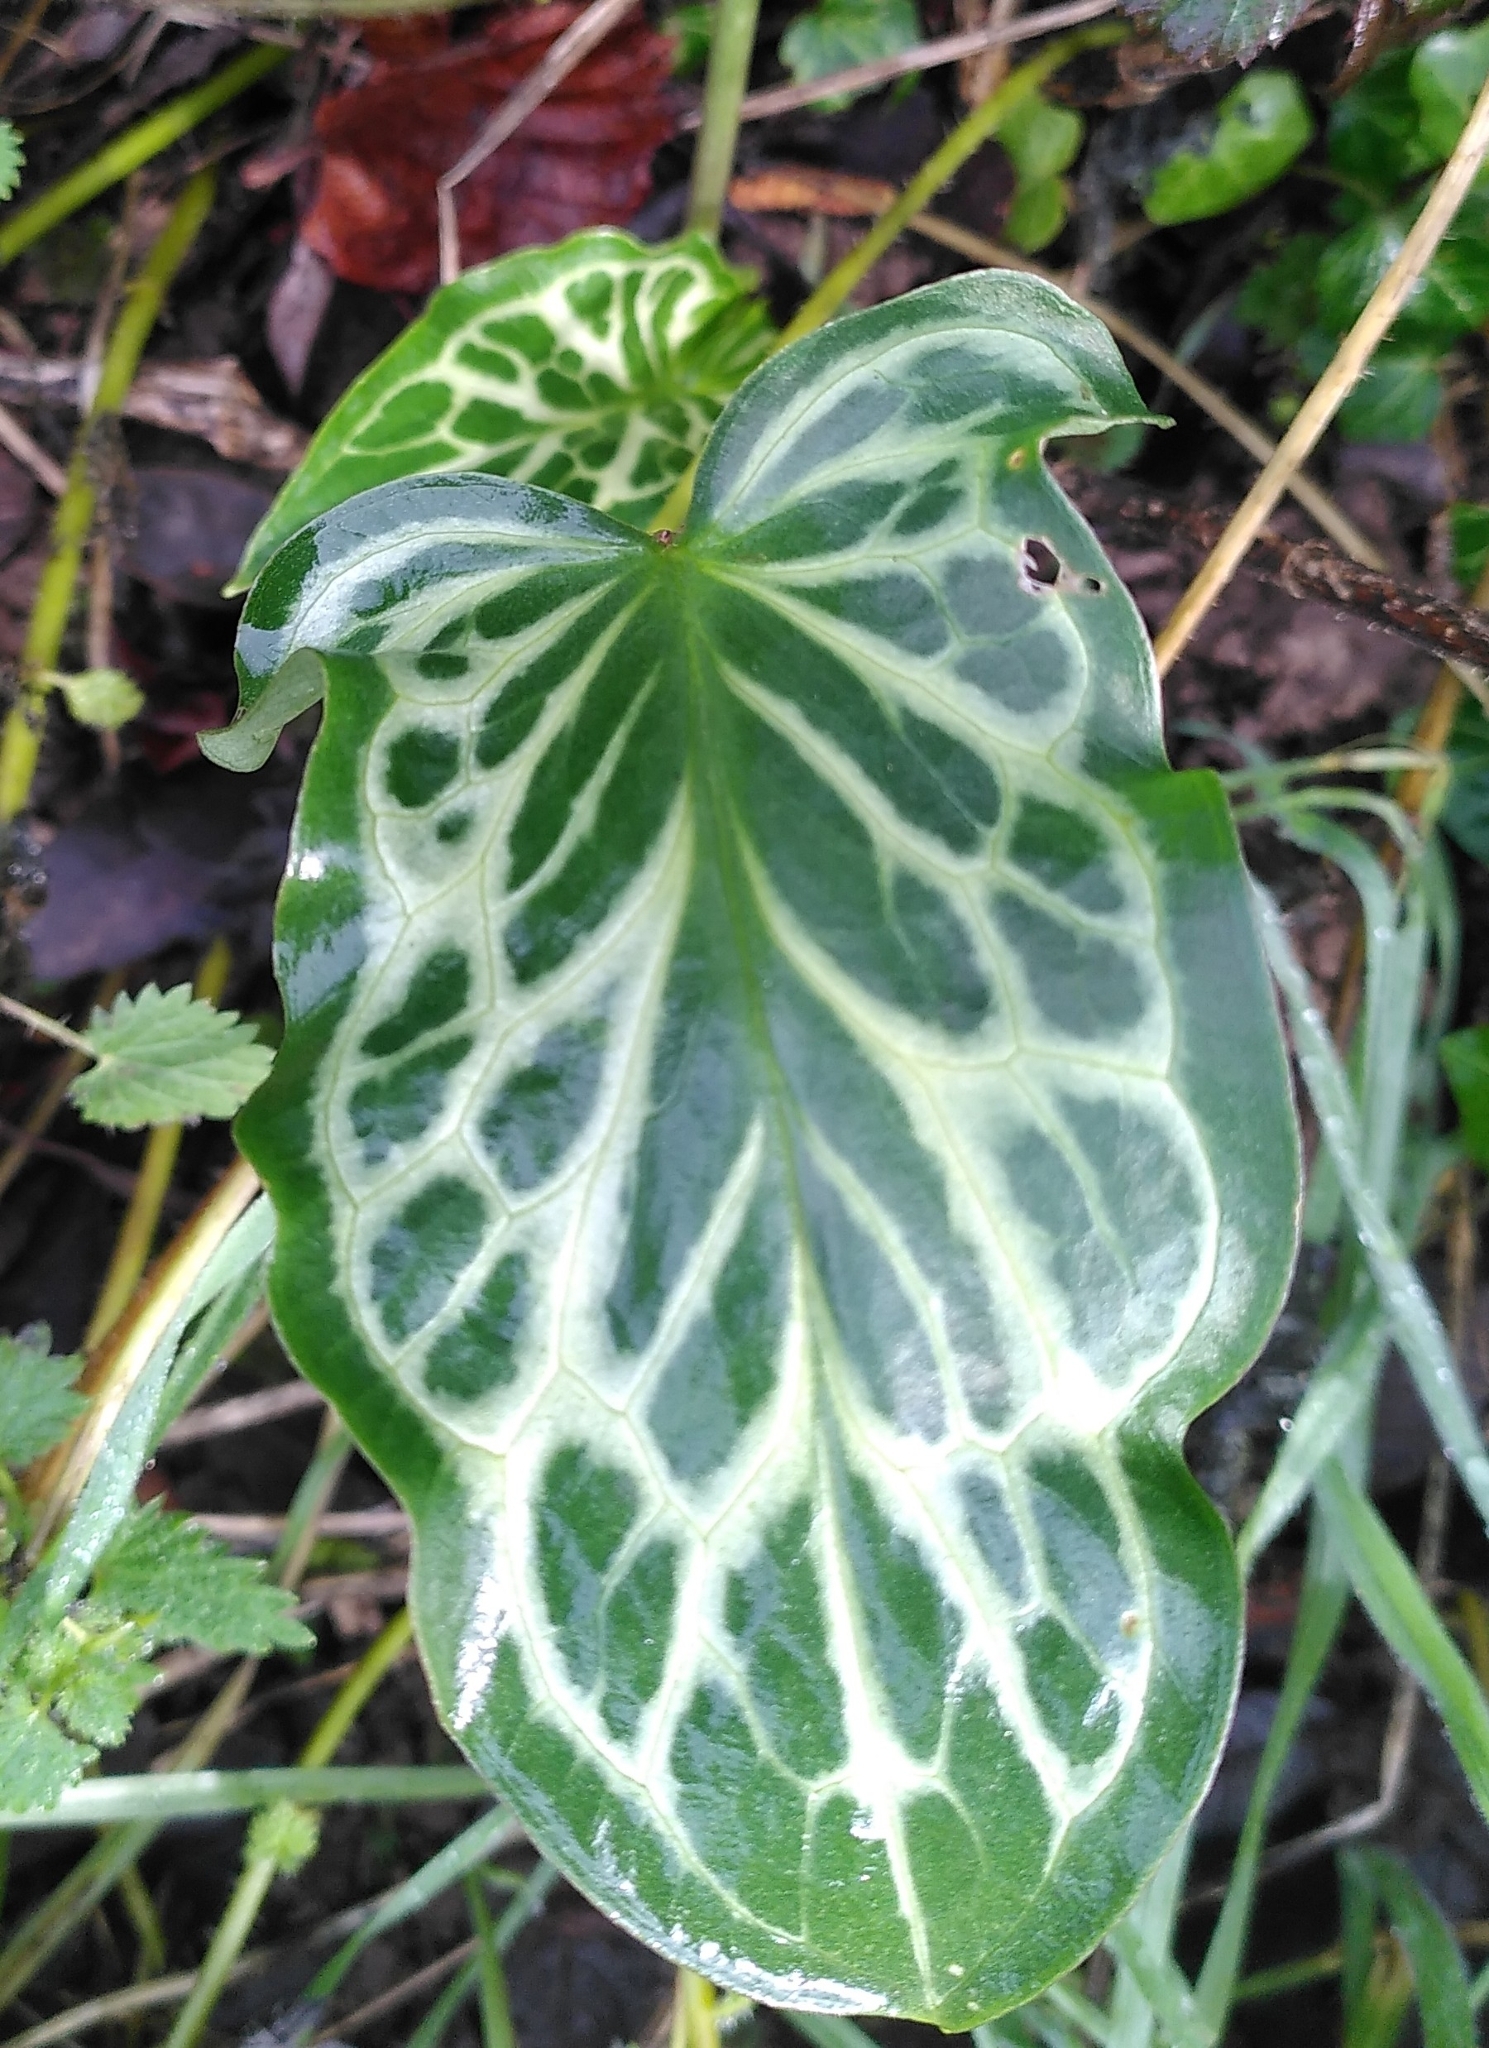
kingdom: Plantae
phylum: Tracheophyta
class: Liliopsida
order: Alismatales
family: Araceae
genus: Arum
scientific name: Arum italicum
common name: Italian lords-and-ladies
